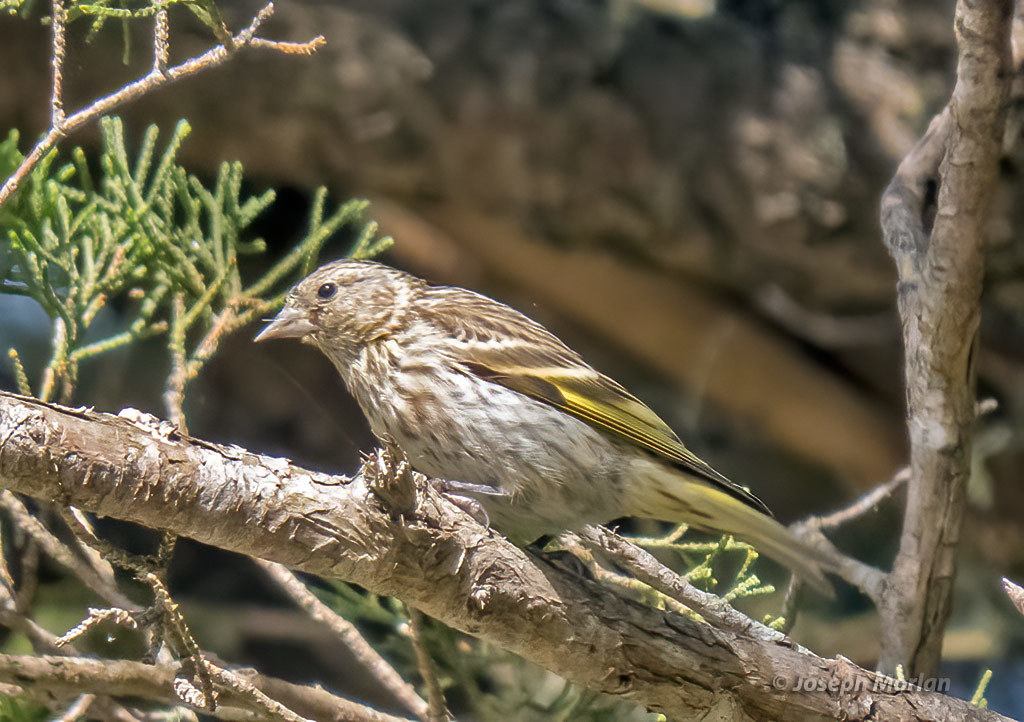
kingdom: Animalia
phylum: Chordata
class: Aves
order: Passeriformes
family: Fringillidae
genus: Spinus
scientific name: Spinus pinus
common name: Pine siskin
